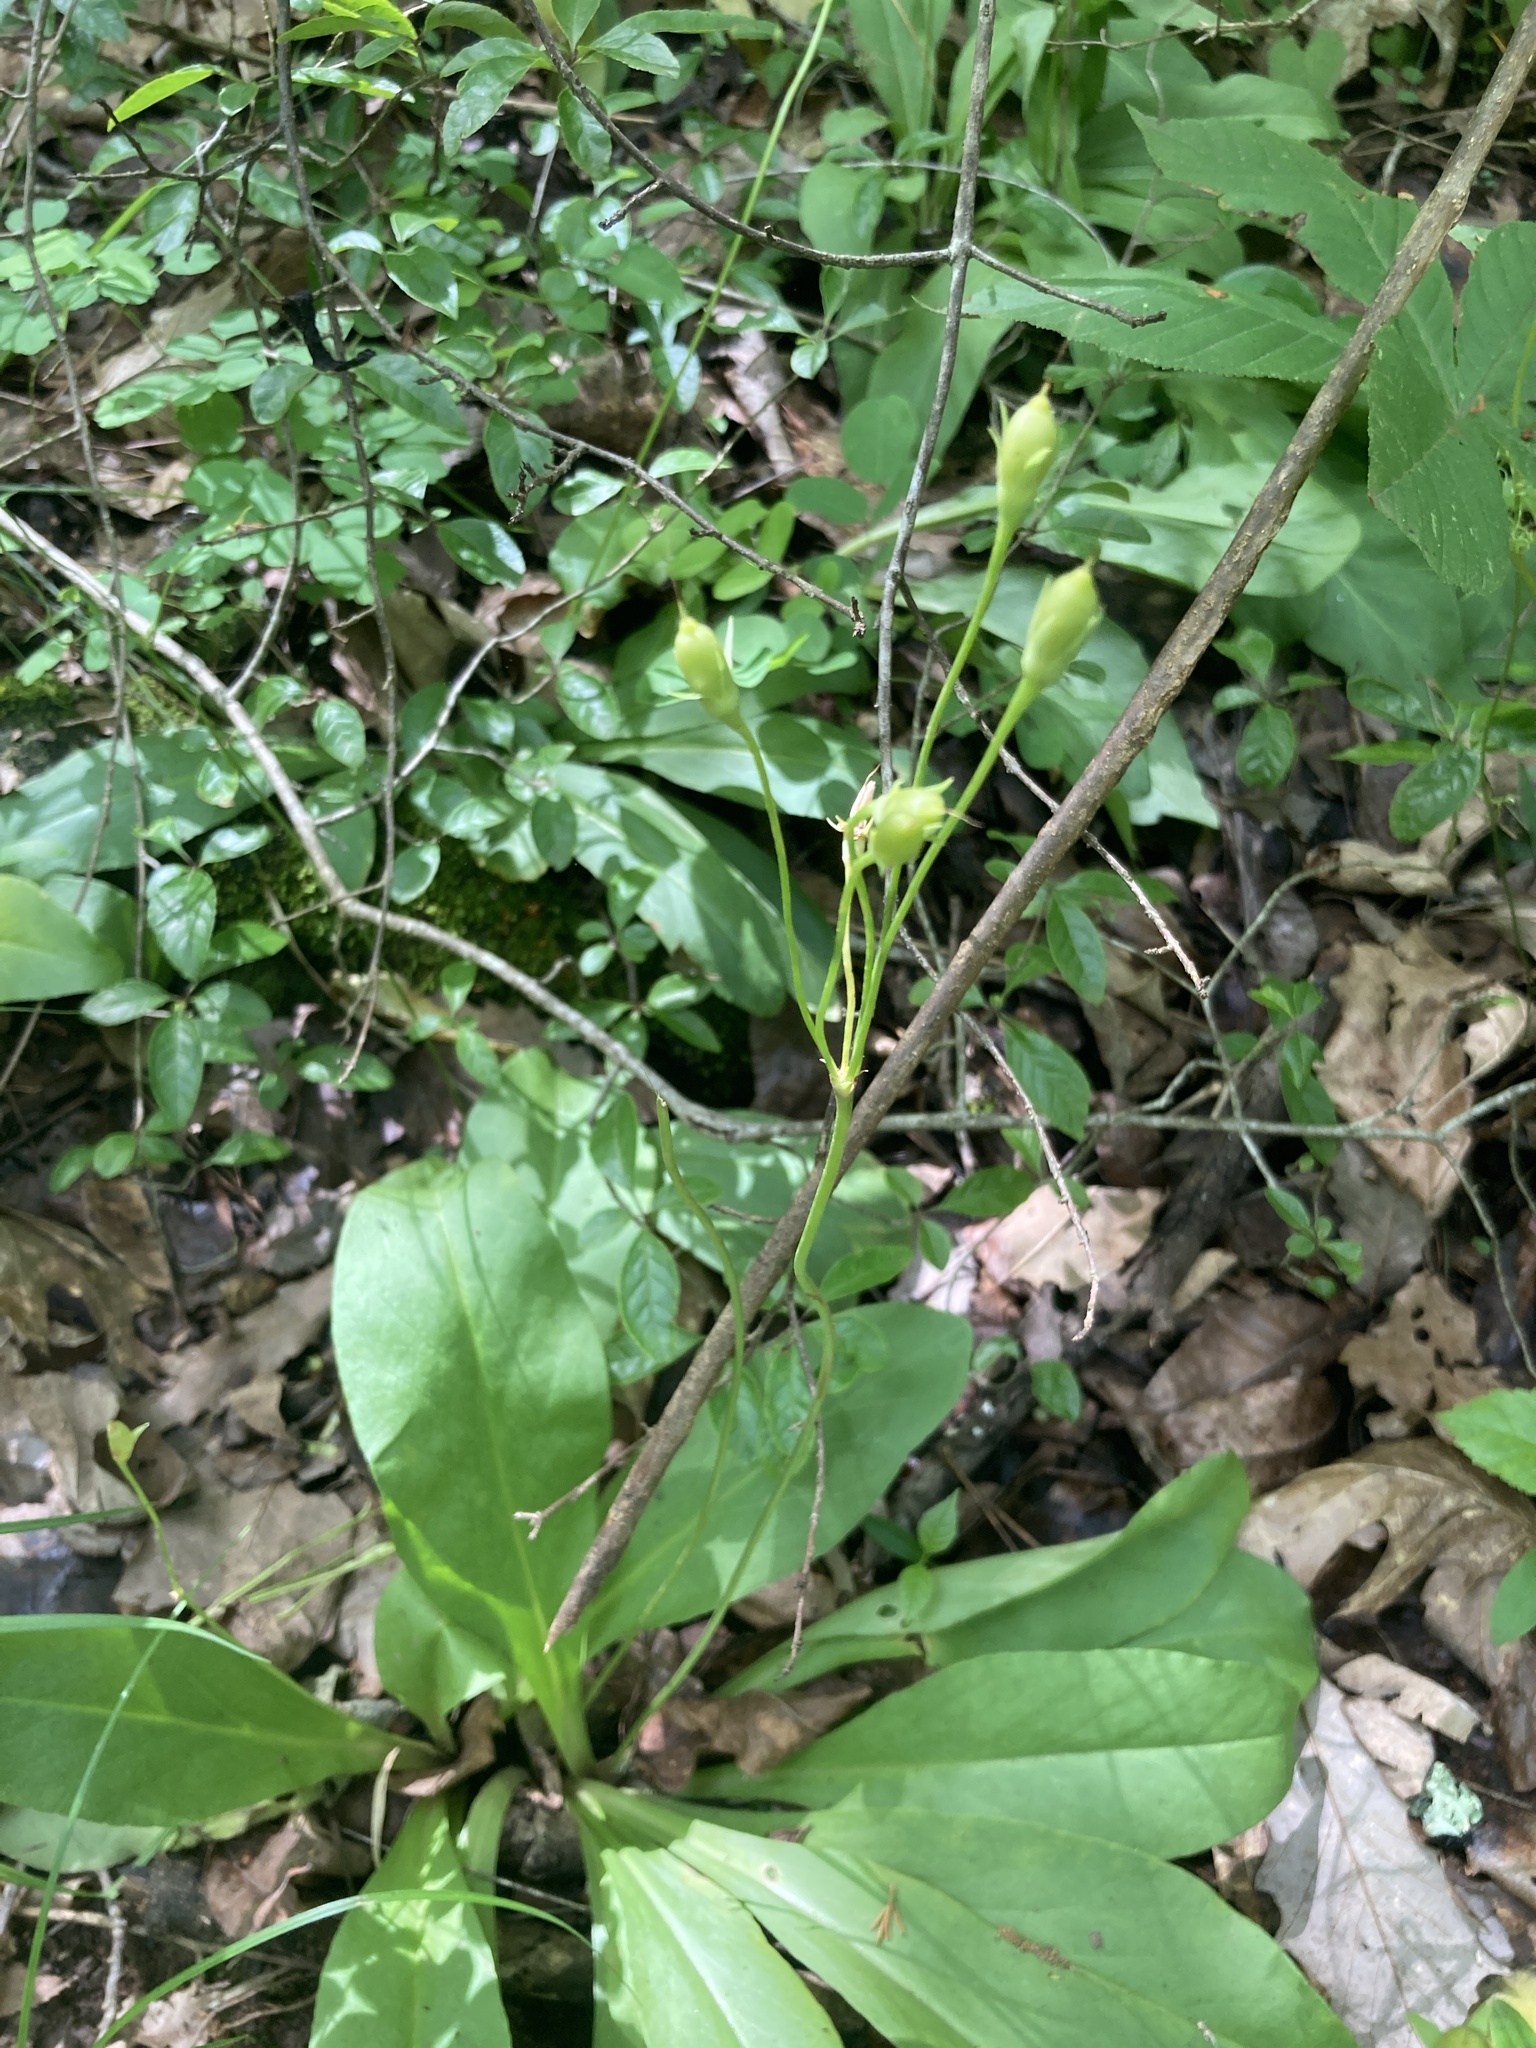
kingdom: Plantae
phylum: Tracheophyta
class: Magnoliopsida
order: Ericales
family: Primulaceae
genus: Dodecatheon
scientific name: Dodecatheon meadia
